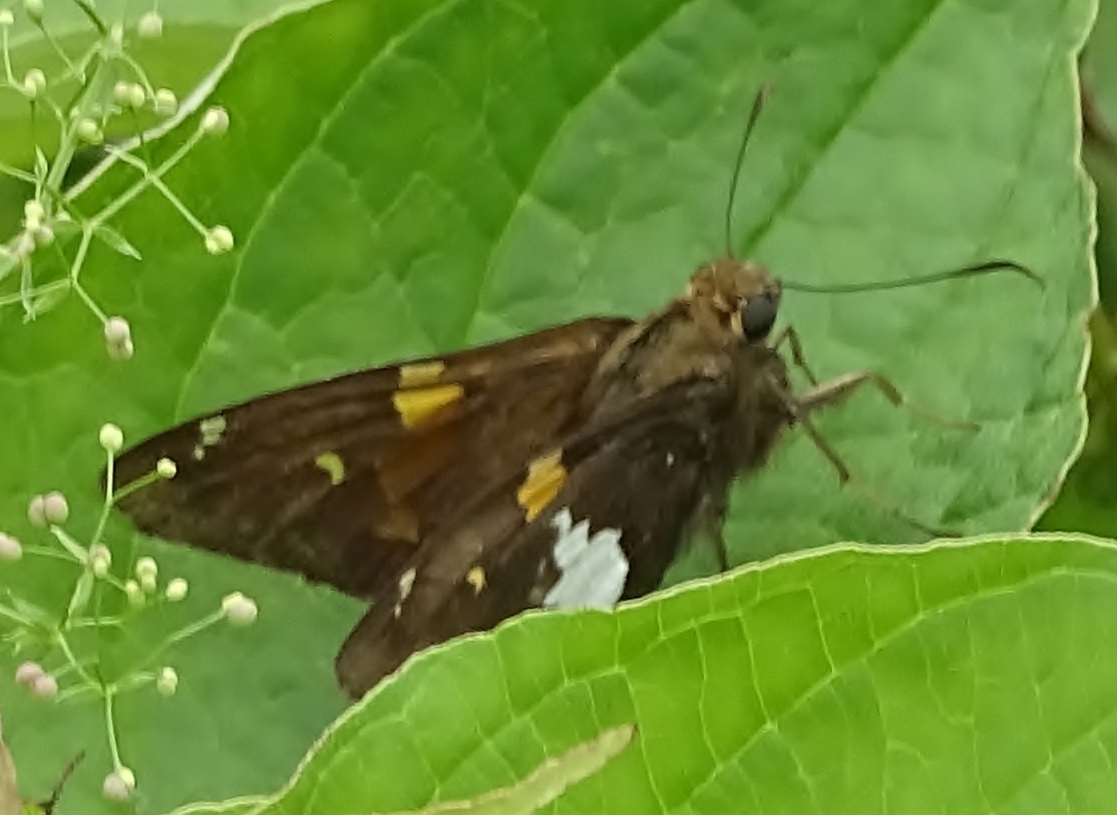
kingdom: Animalia
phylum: Arthropoda
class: Insecta
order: Lepidoptera
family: Hesperiidae
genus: Epargyreus
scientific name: Epargyreus clarus
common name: Silver-spotted skipper
